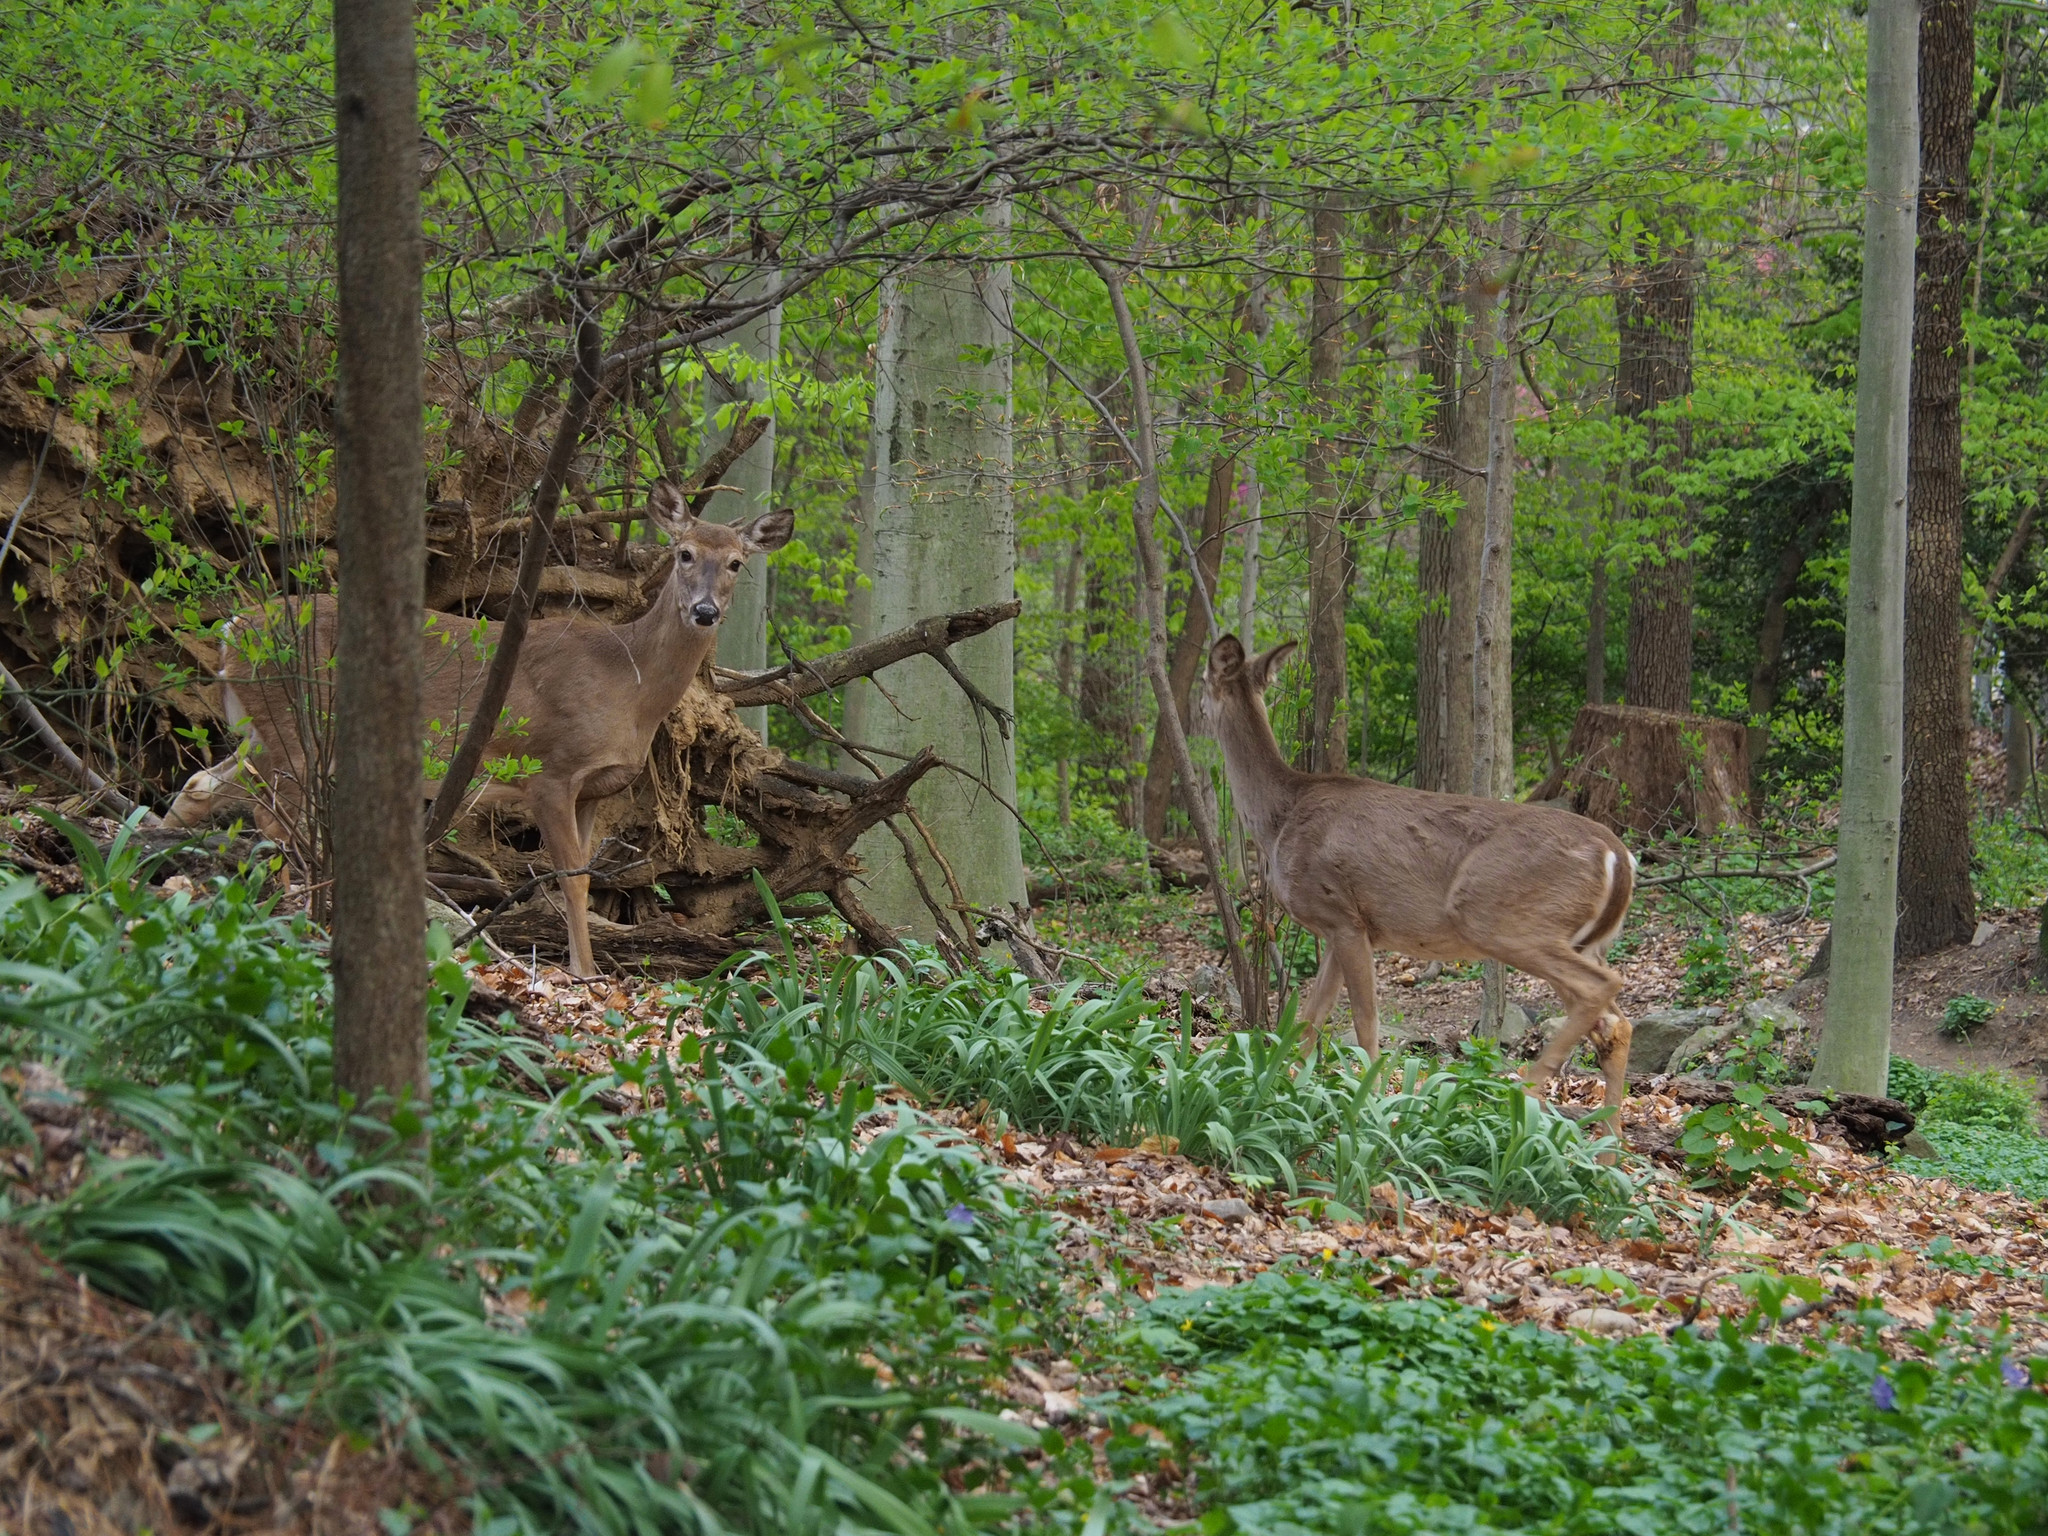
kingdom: Animalia
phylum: Chordata
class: Mammalia
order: Artiodactyla
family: Cervidae
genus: Odocoileus
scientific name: Odocoileus virginianus
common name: White-tailed deer
